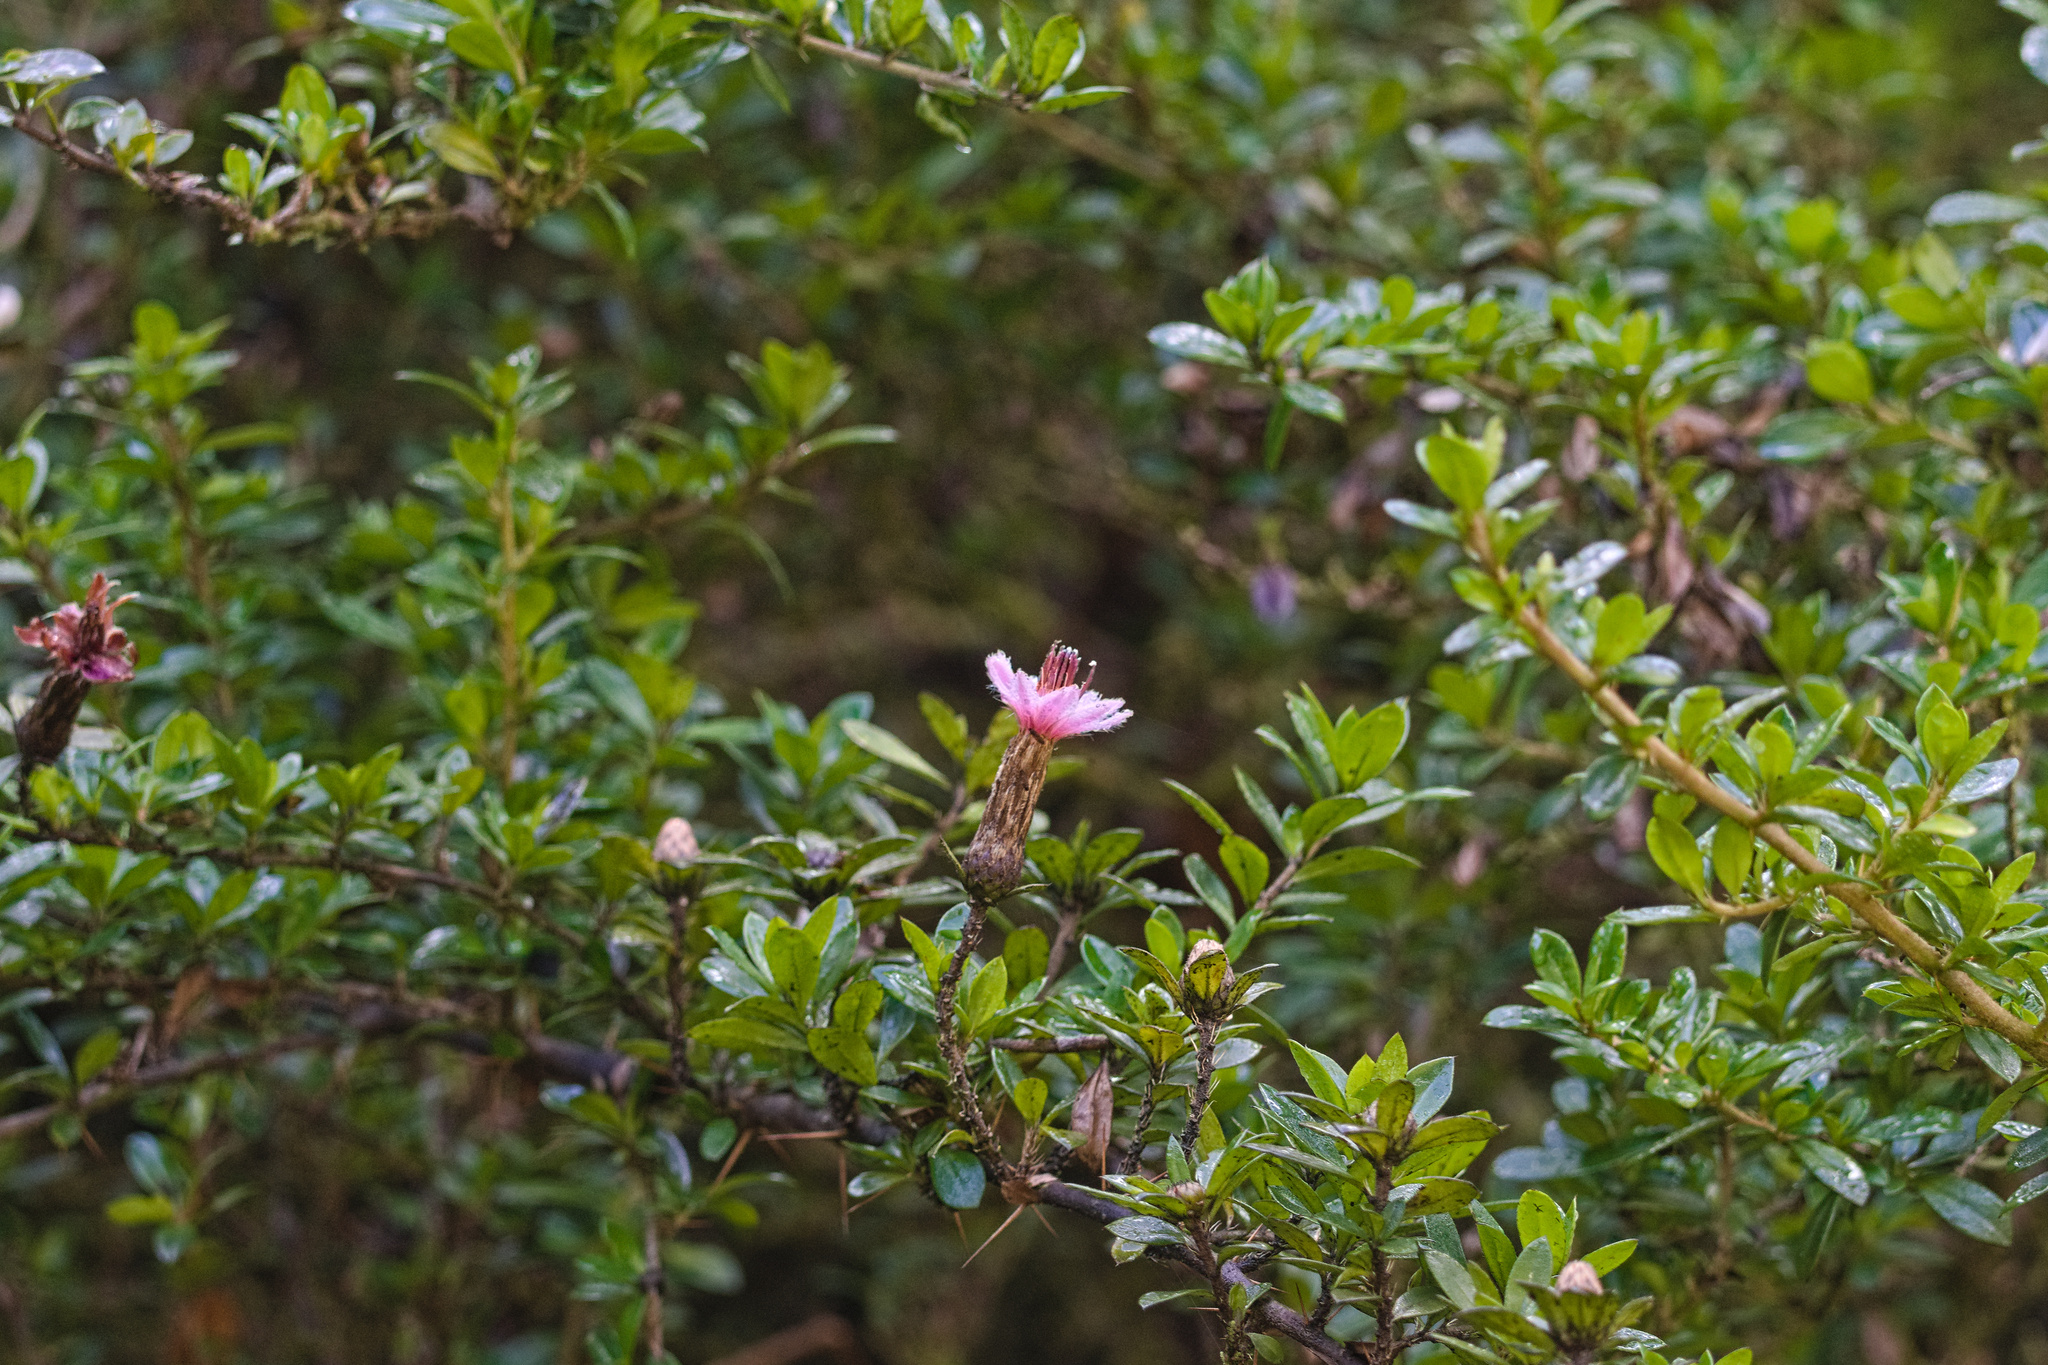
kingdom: Plantae
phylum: Tracheophyta
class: Magnoliopsida
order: Asterales
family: Asteraceae
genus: Barnadesia
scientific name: Barnadesia arborea
